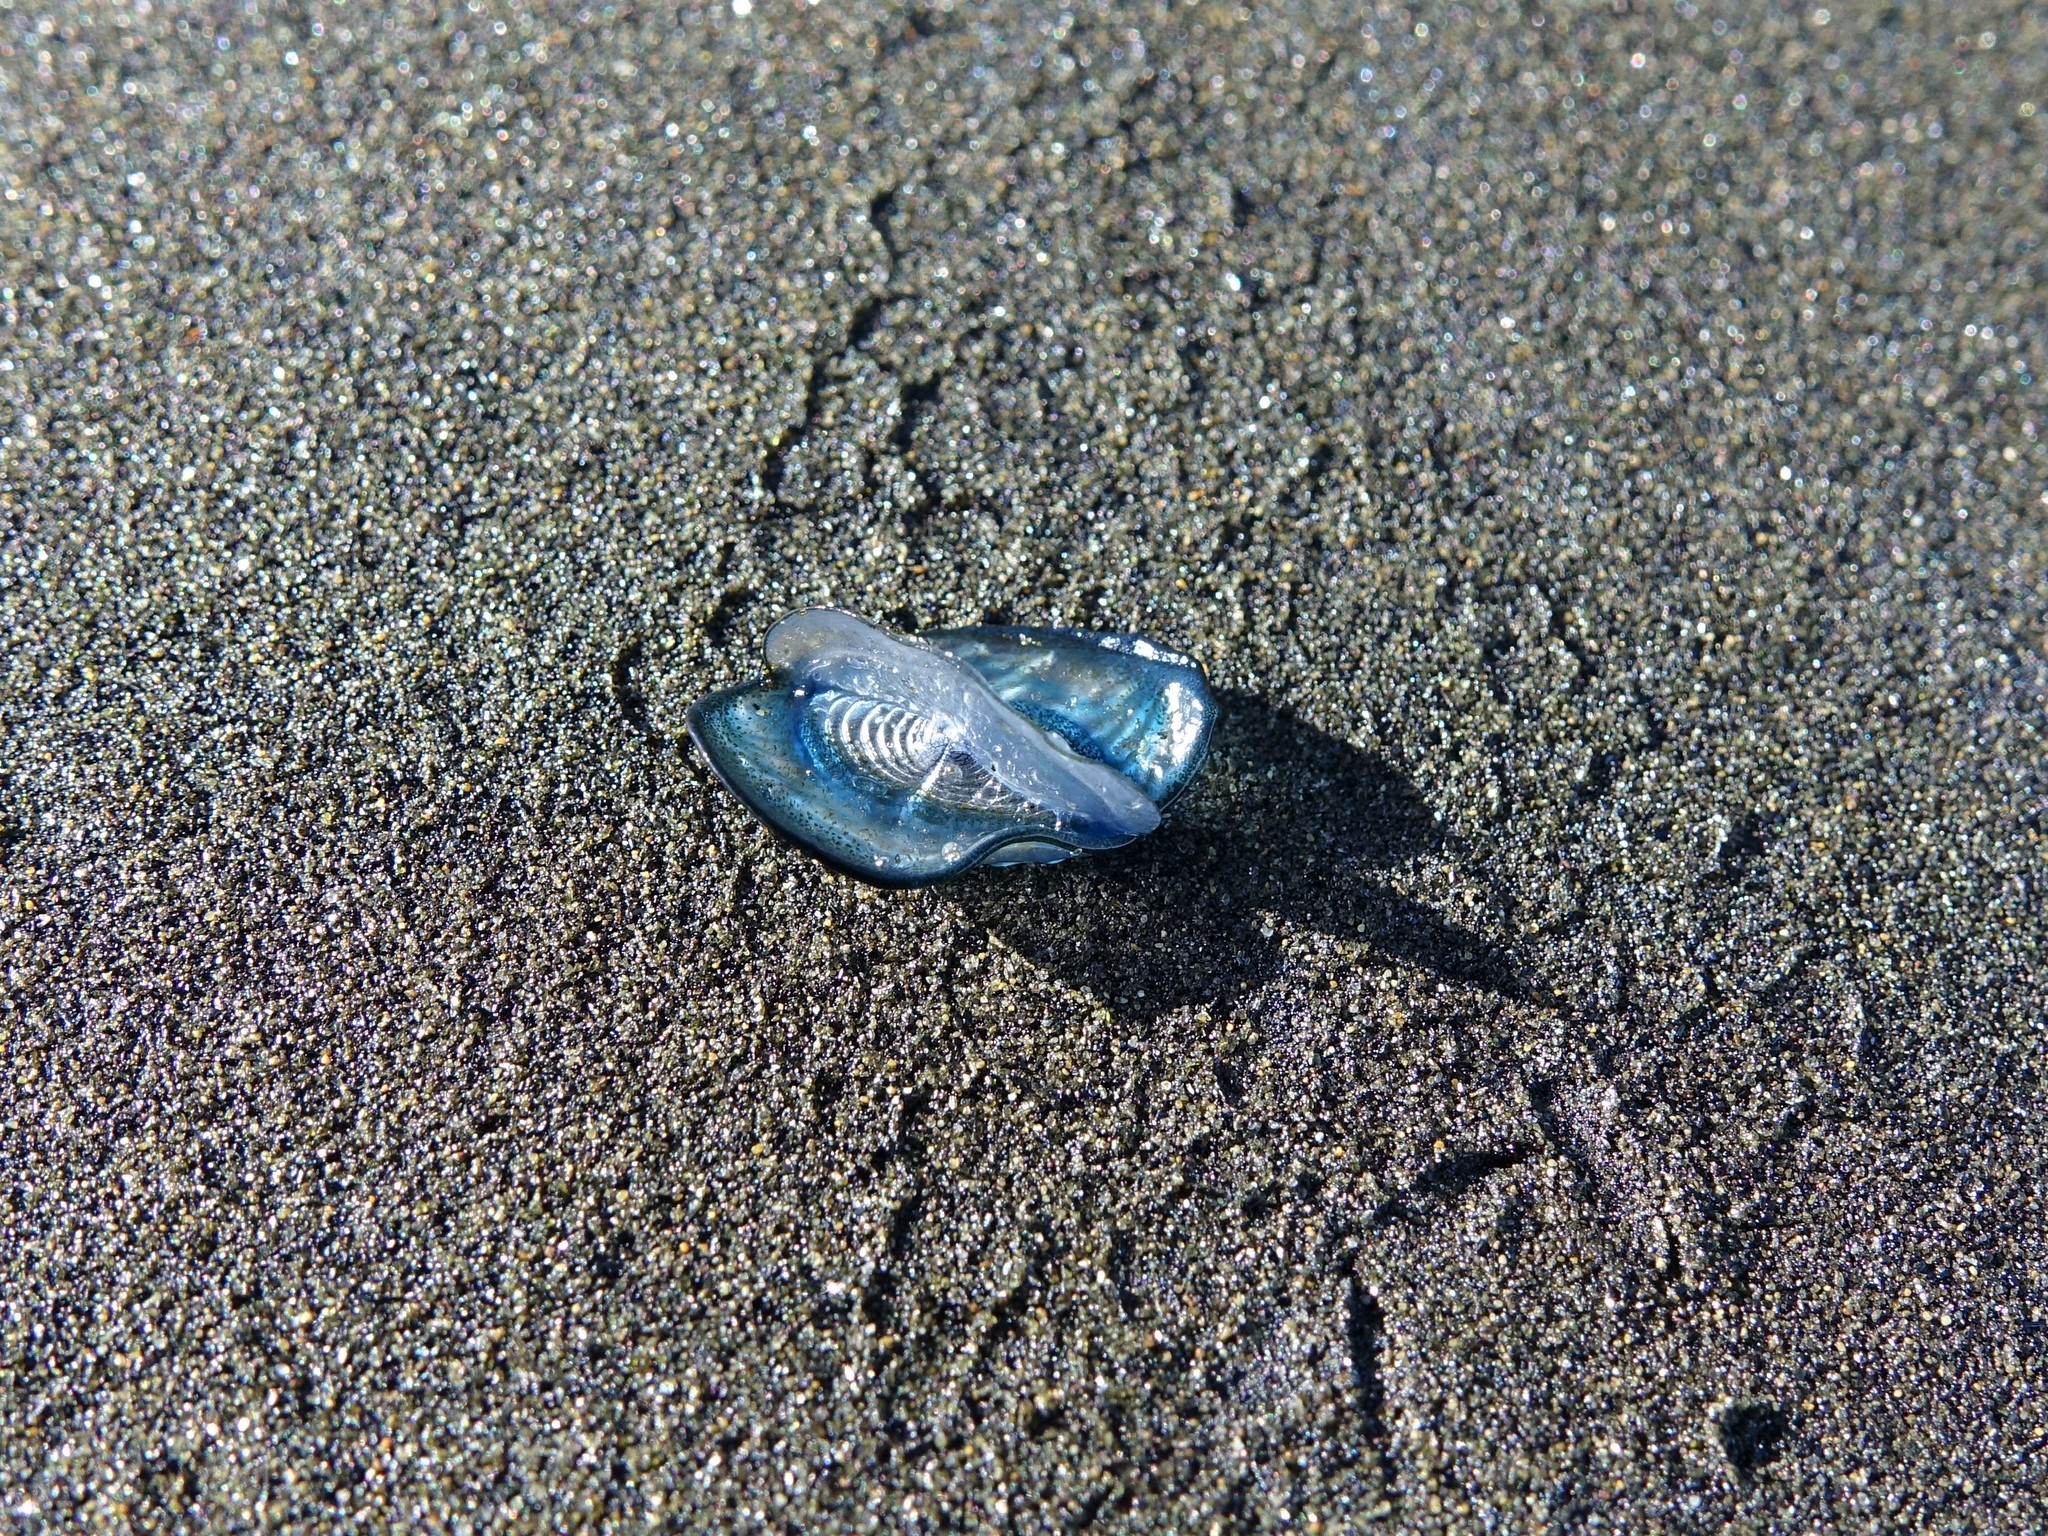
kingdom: Animalia
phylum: Cnidaria
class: Hydrozoa
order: Anthoathecata
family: Porpitidae
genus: Velella
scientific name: Velella velella
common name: By-the-wind-sailor
